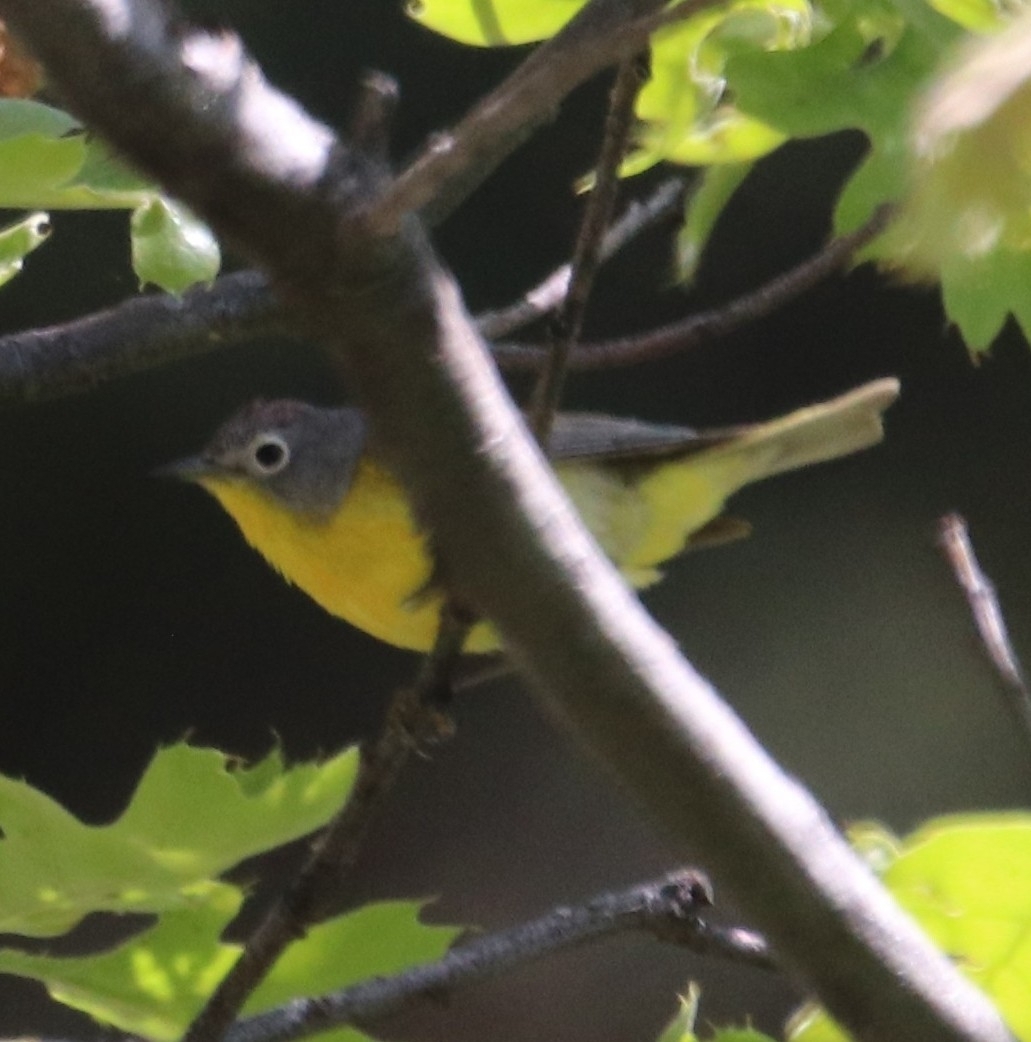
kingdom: Animalia
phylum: Chordata
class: Aves
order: Passeriformes
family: Parulidae
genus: Leiothlypis
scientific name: Leiothlypis ruficapilla
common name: Nashville warbler
